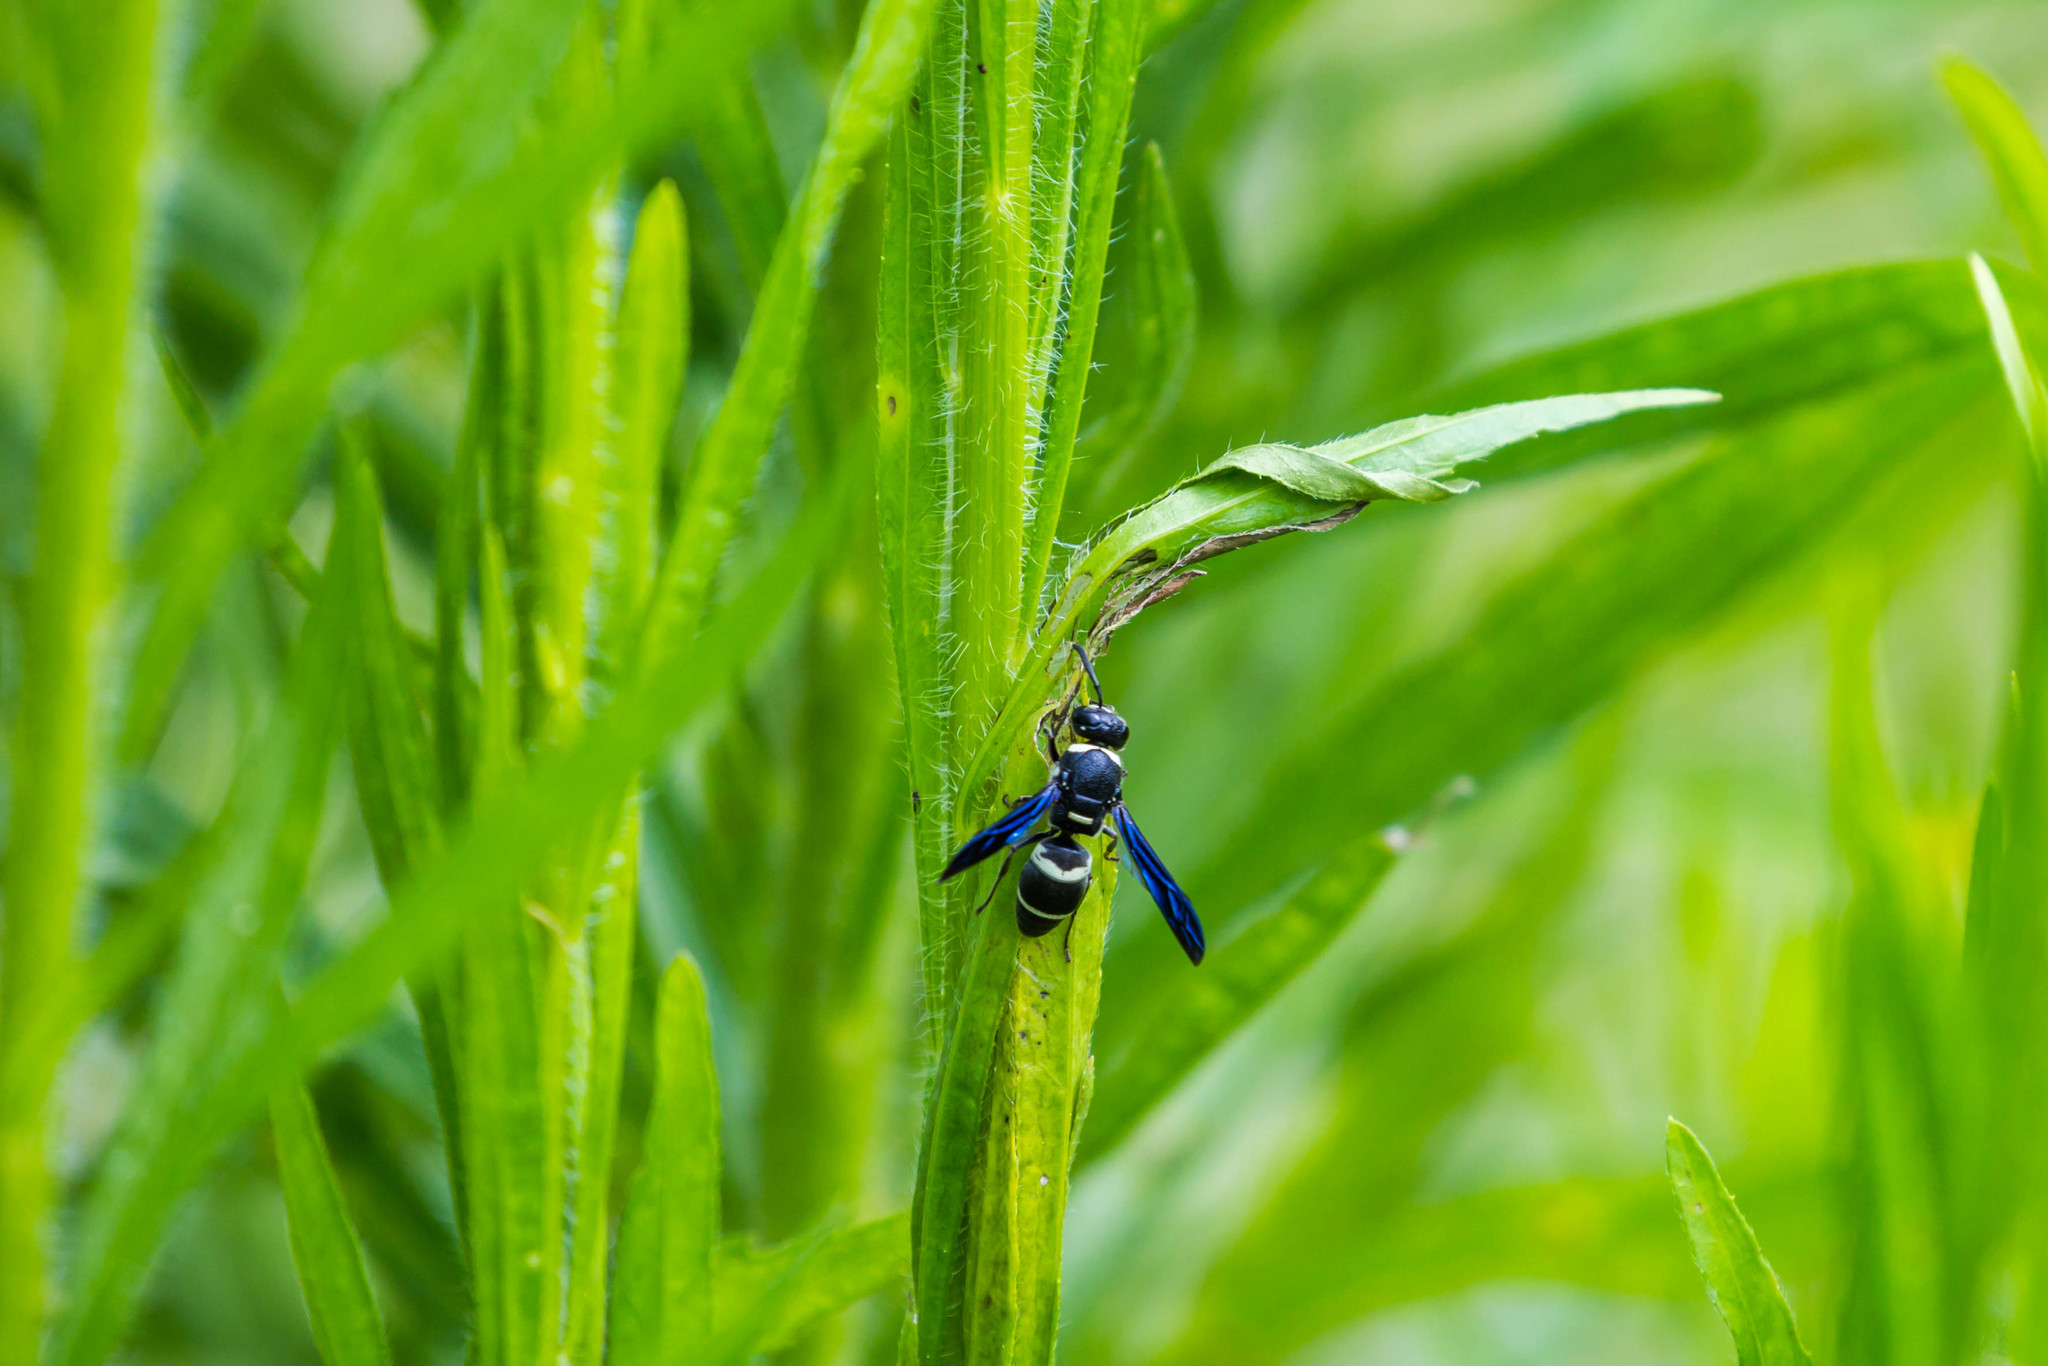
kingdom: Animalia
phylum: Arthropoda
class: Insecta
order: Hymenoptera
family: Eumenidae
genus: Euodynerus
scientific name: Euodynerus megaera
